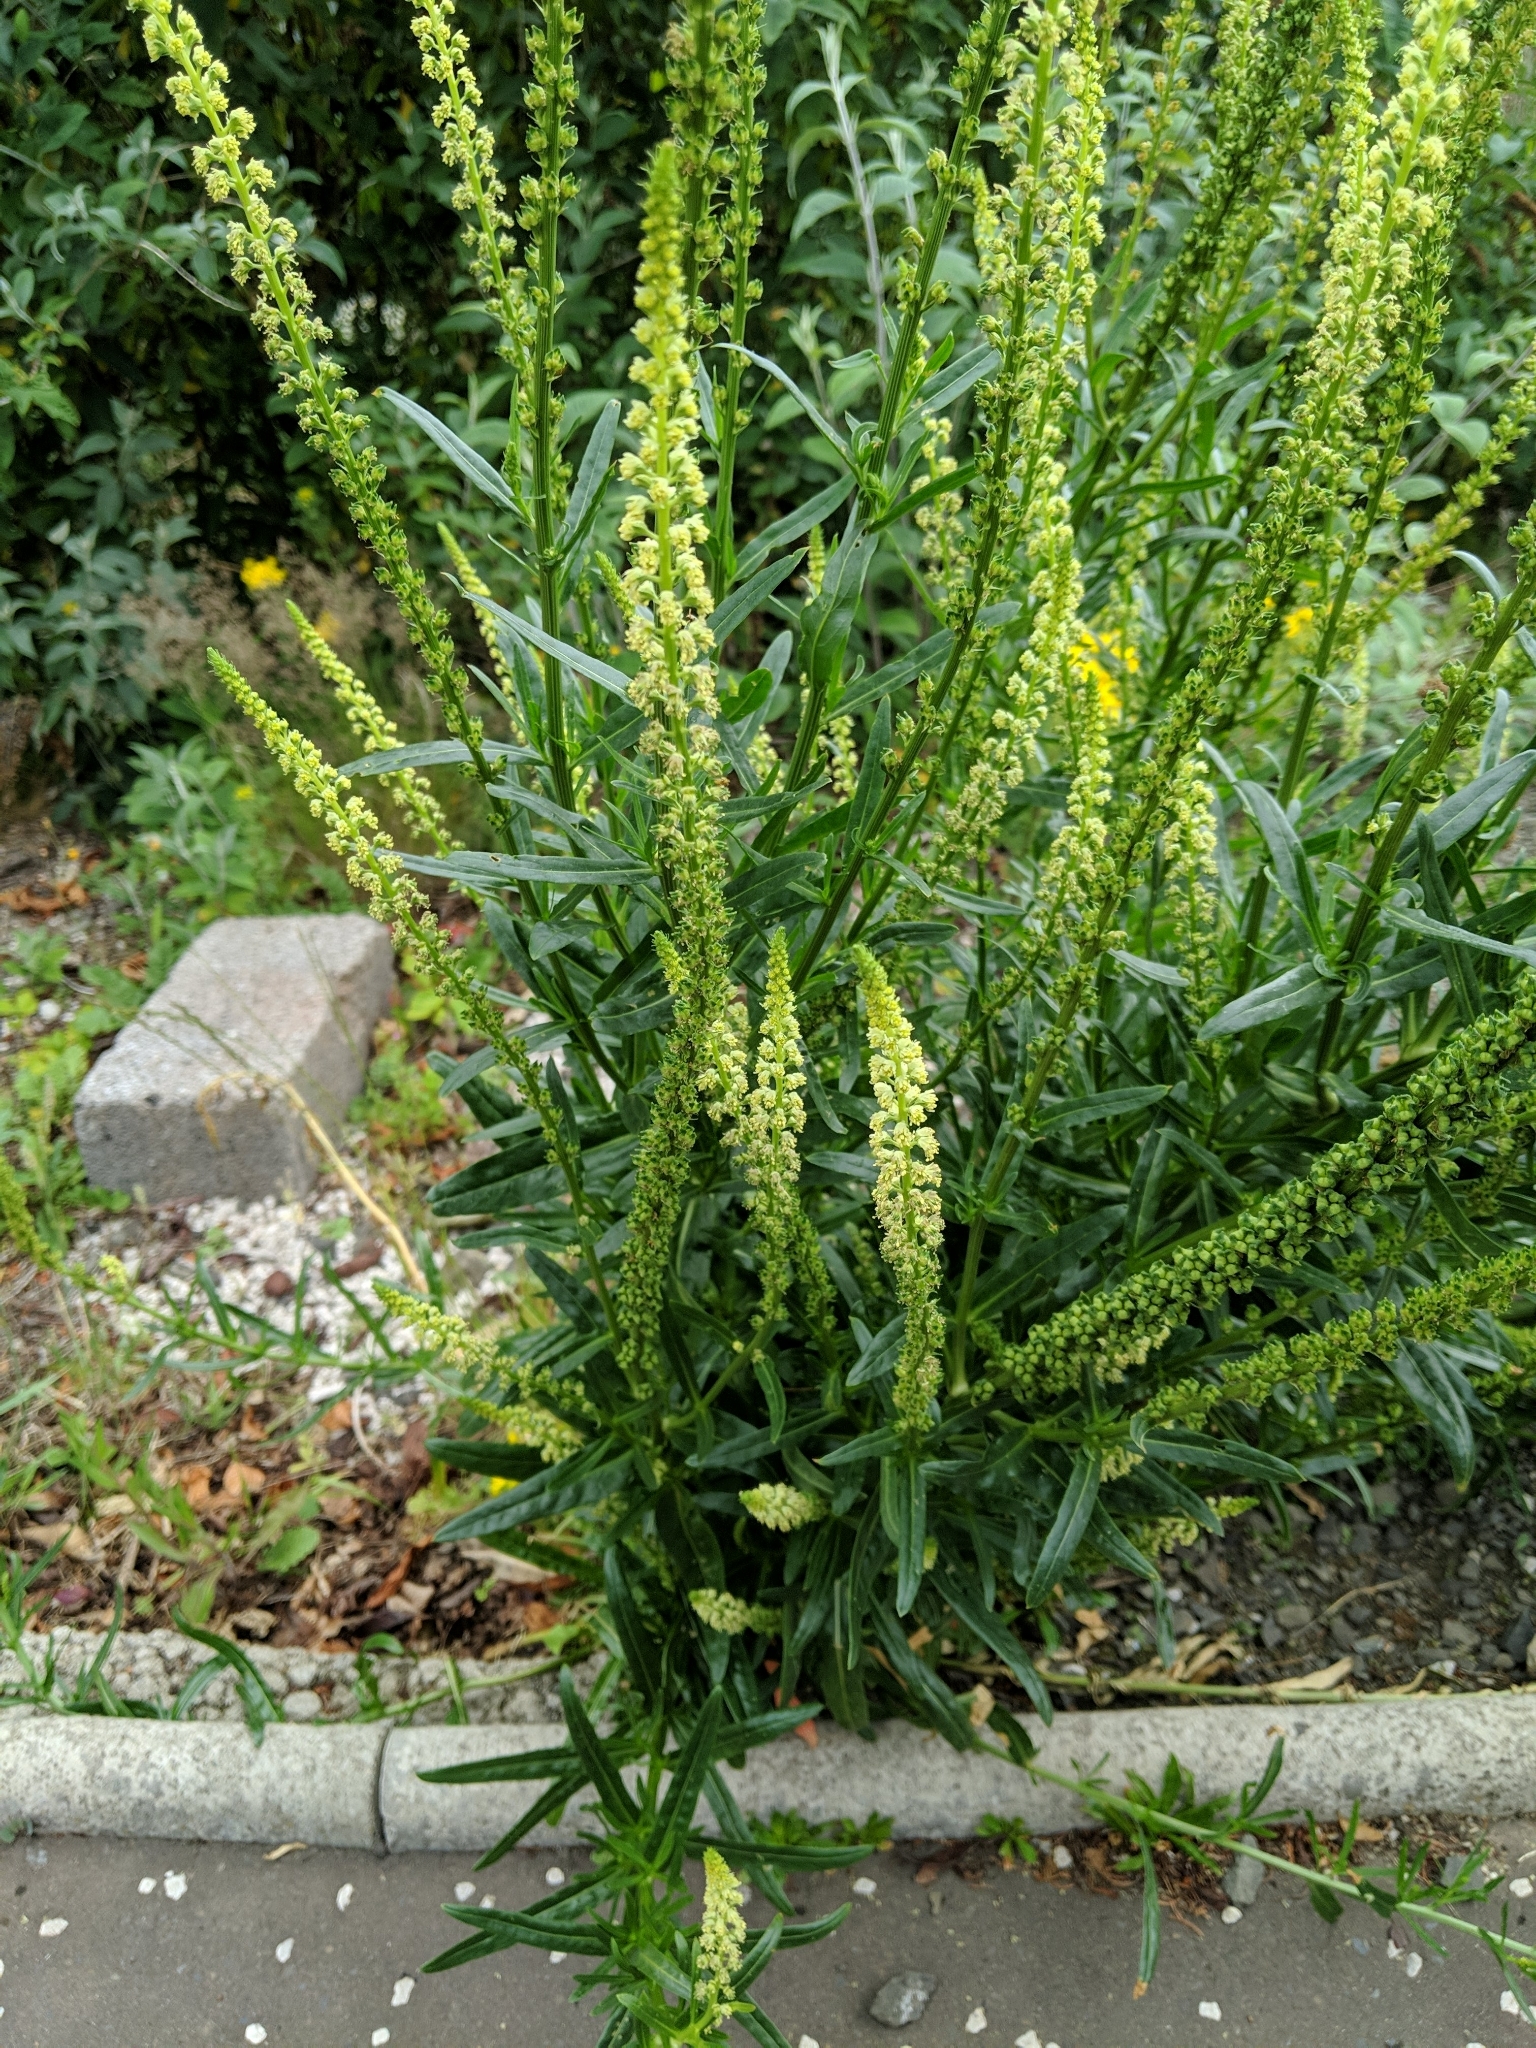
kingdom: Plantae
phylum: Tracheophyta
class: Magnoliopsida
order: Brassicales
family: Resedaceae
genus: Reseda
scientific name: Reseda luteola
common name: Weld
